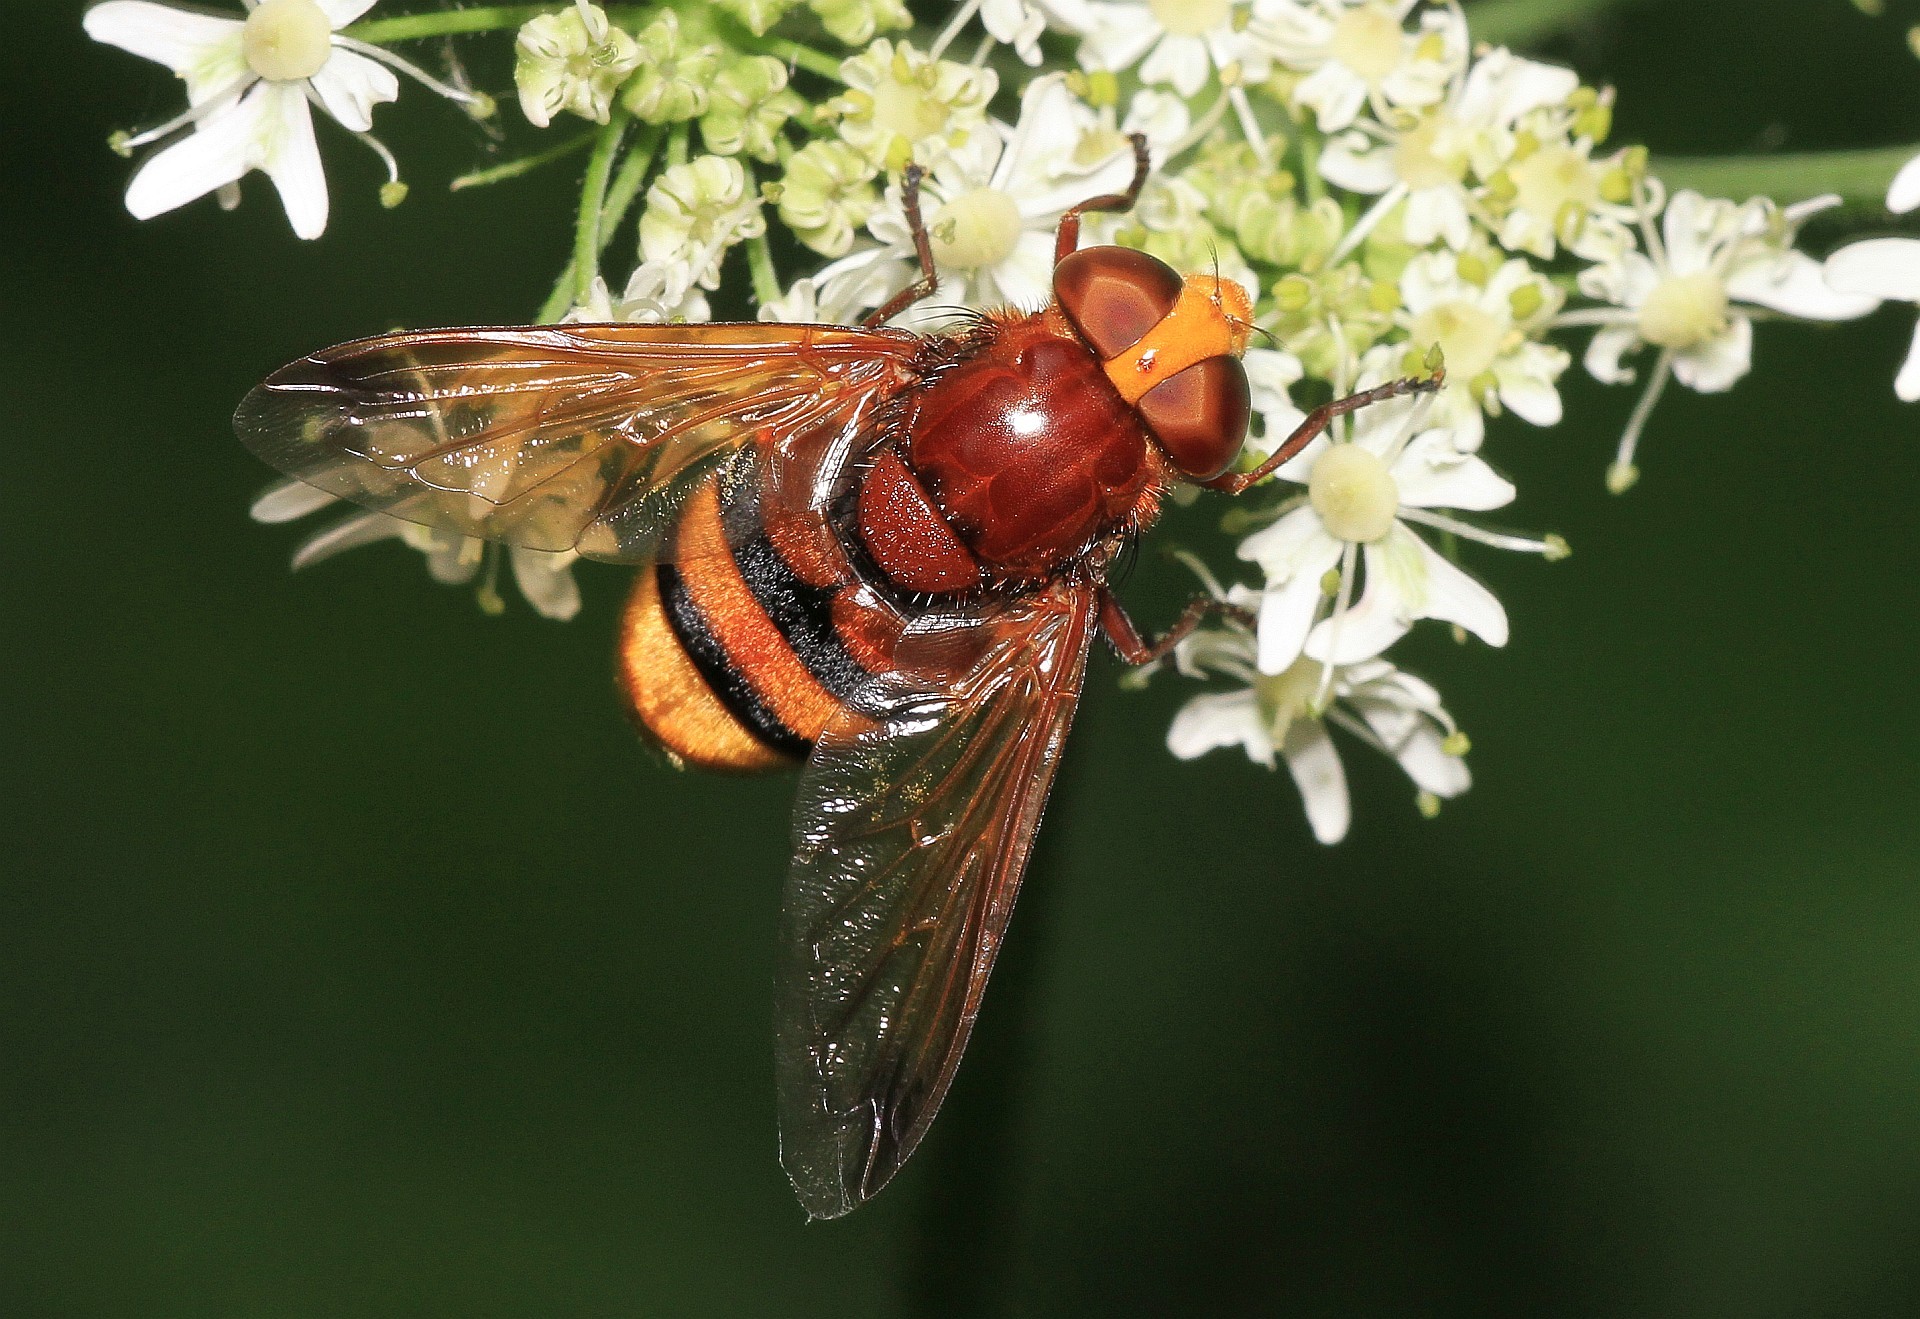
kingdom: Animalia
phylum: Arthropoda
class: Insecta
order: Diptera
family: Syrphidae
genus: Volucella
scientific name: Volucella zonaria
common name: Hornet hoverfly
